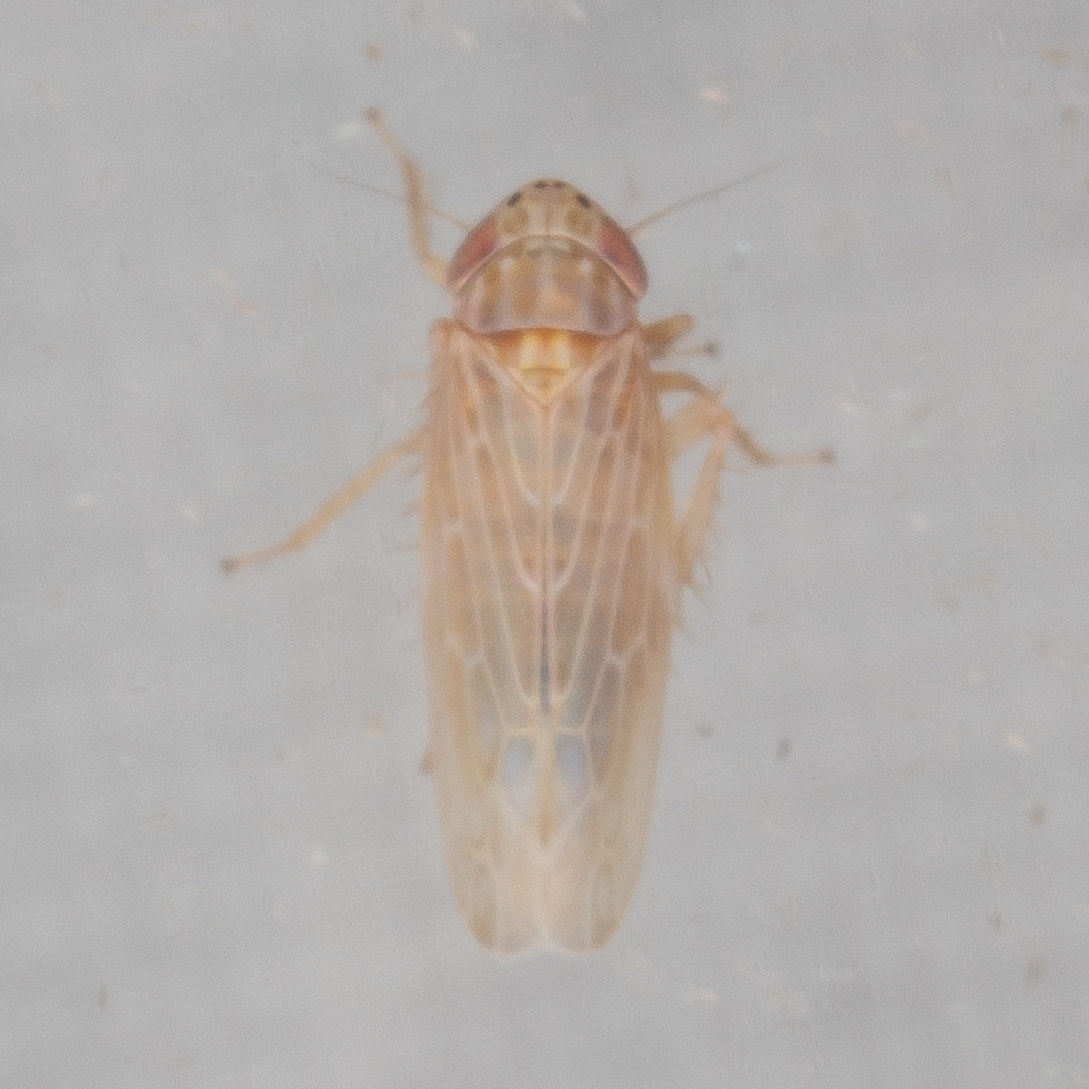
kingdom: Animalia
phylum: Arthropoda
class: Insecta
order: Hemiptera
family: Cicadellidae
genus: Graminella
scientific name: Graminella sonora
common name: Lesser lawn leafhopper
